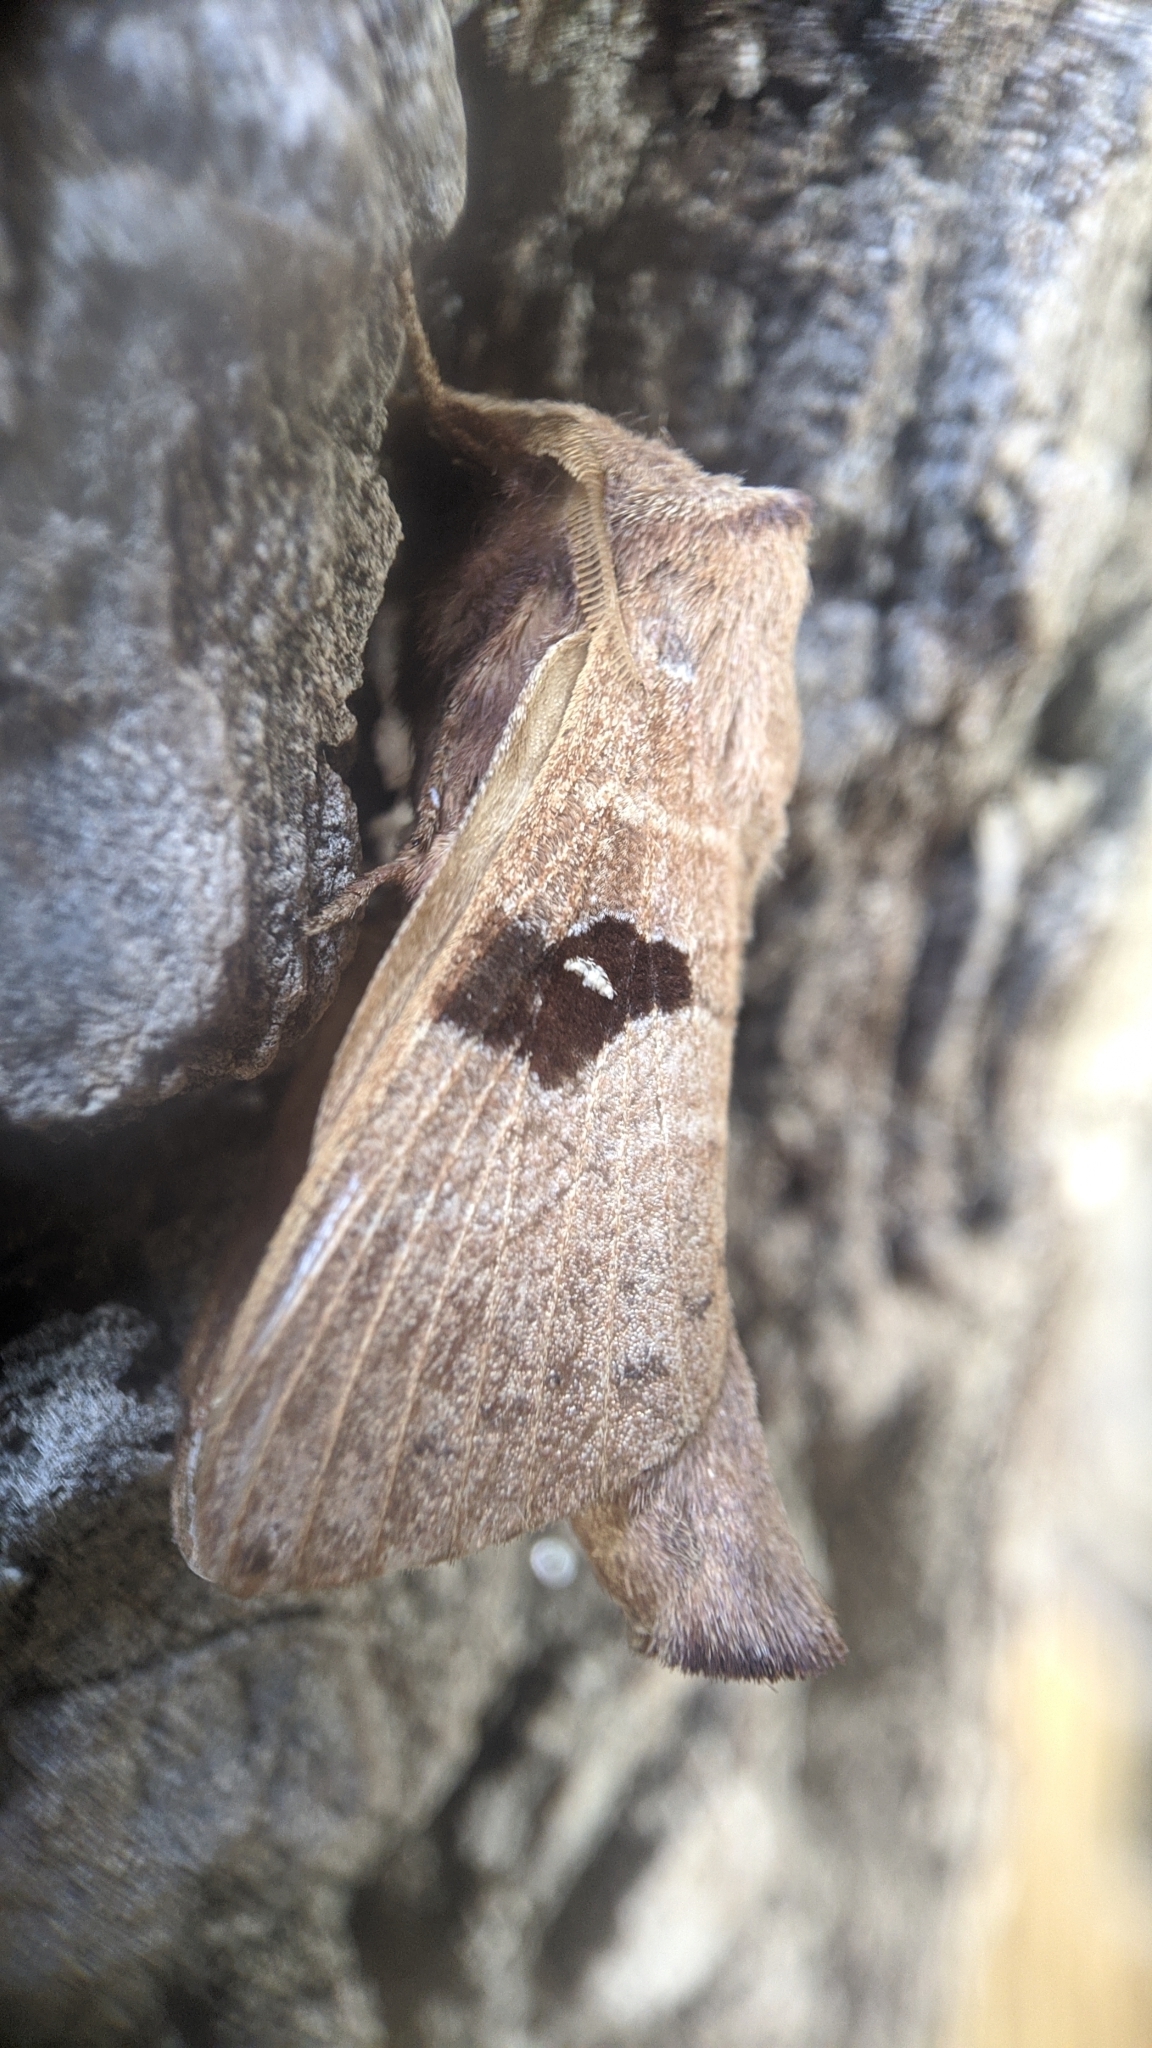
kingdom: Animalia
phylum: Arthropoda
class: Insecta
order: Lepidoptera
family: Lasiocampidae
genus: Metanastria
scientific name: Metanastria gemella
